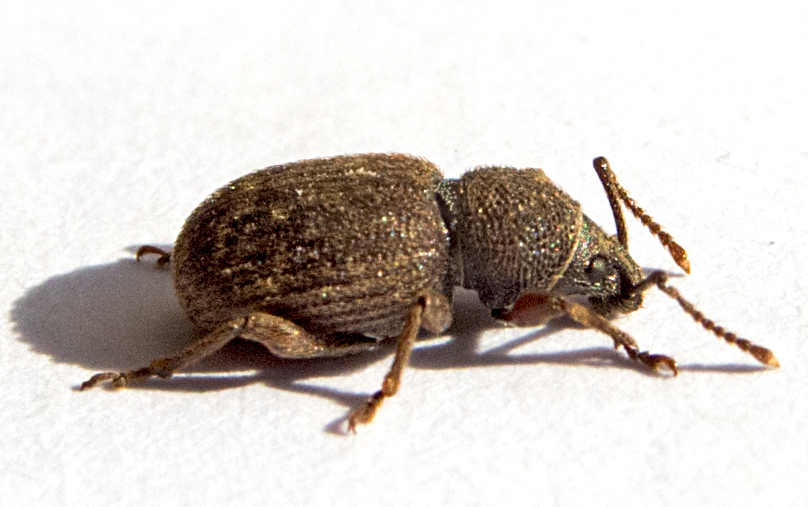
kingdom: Animalia
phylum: Arthropoda
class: Insecta
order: Coleoptera
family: Curculionidae
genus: Otiorhynchus
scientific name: Otiorhynchus brunneus
